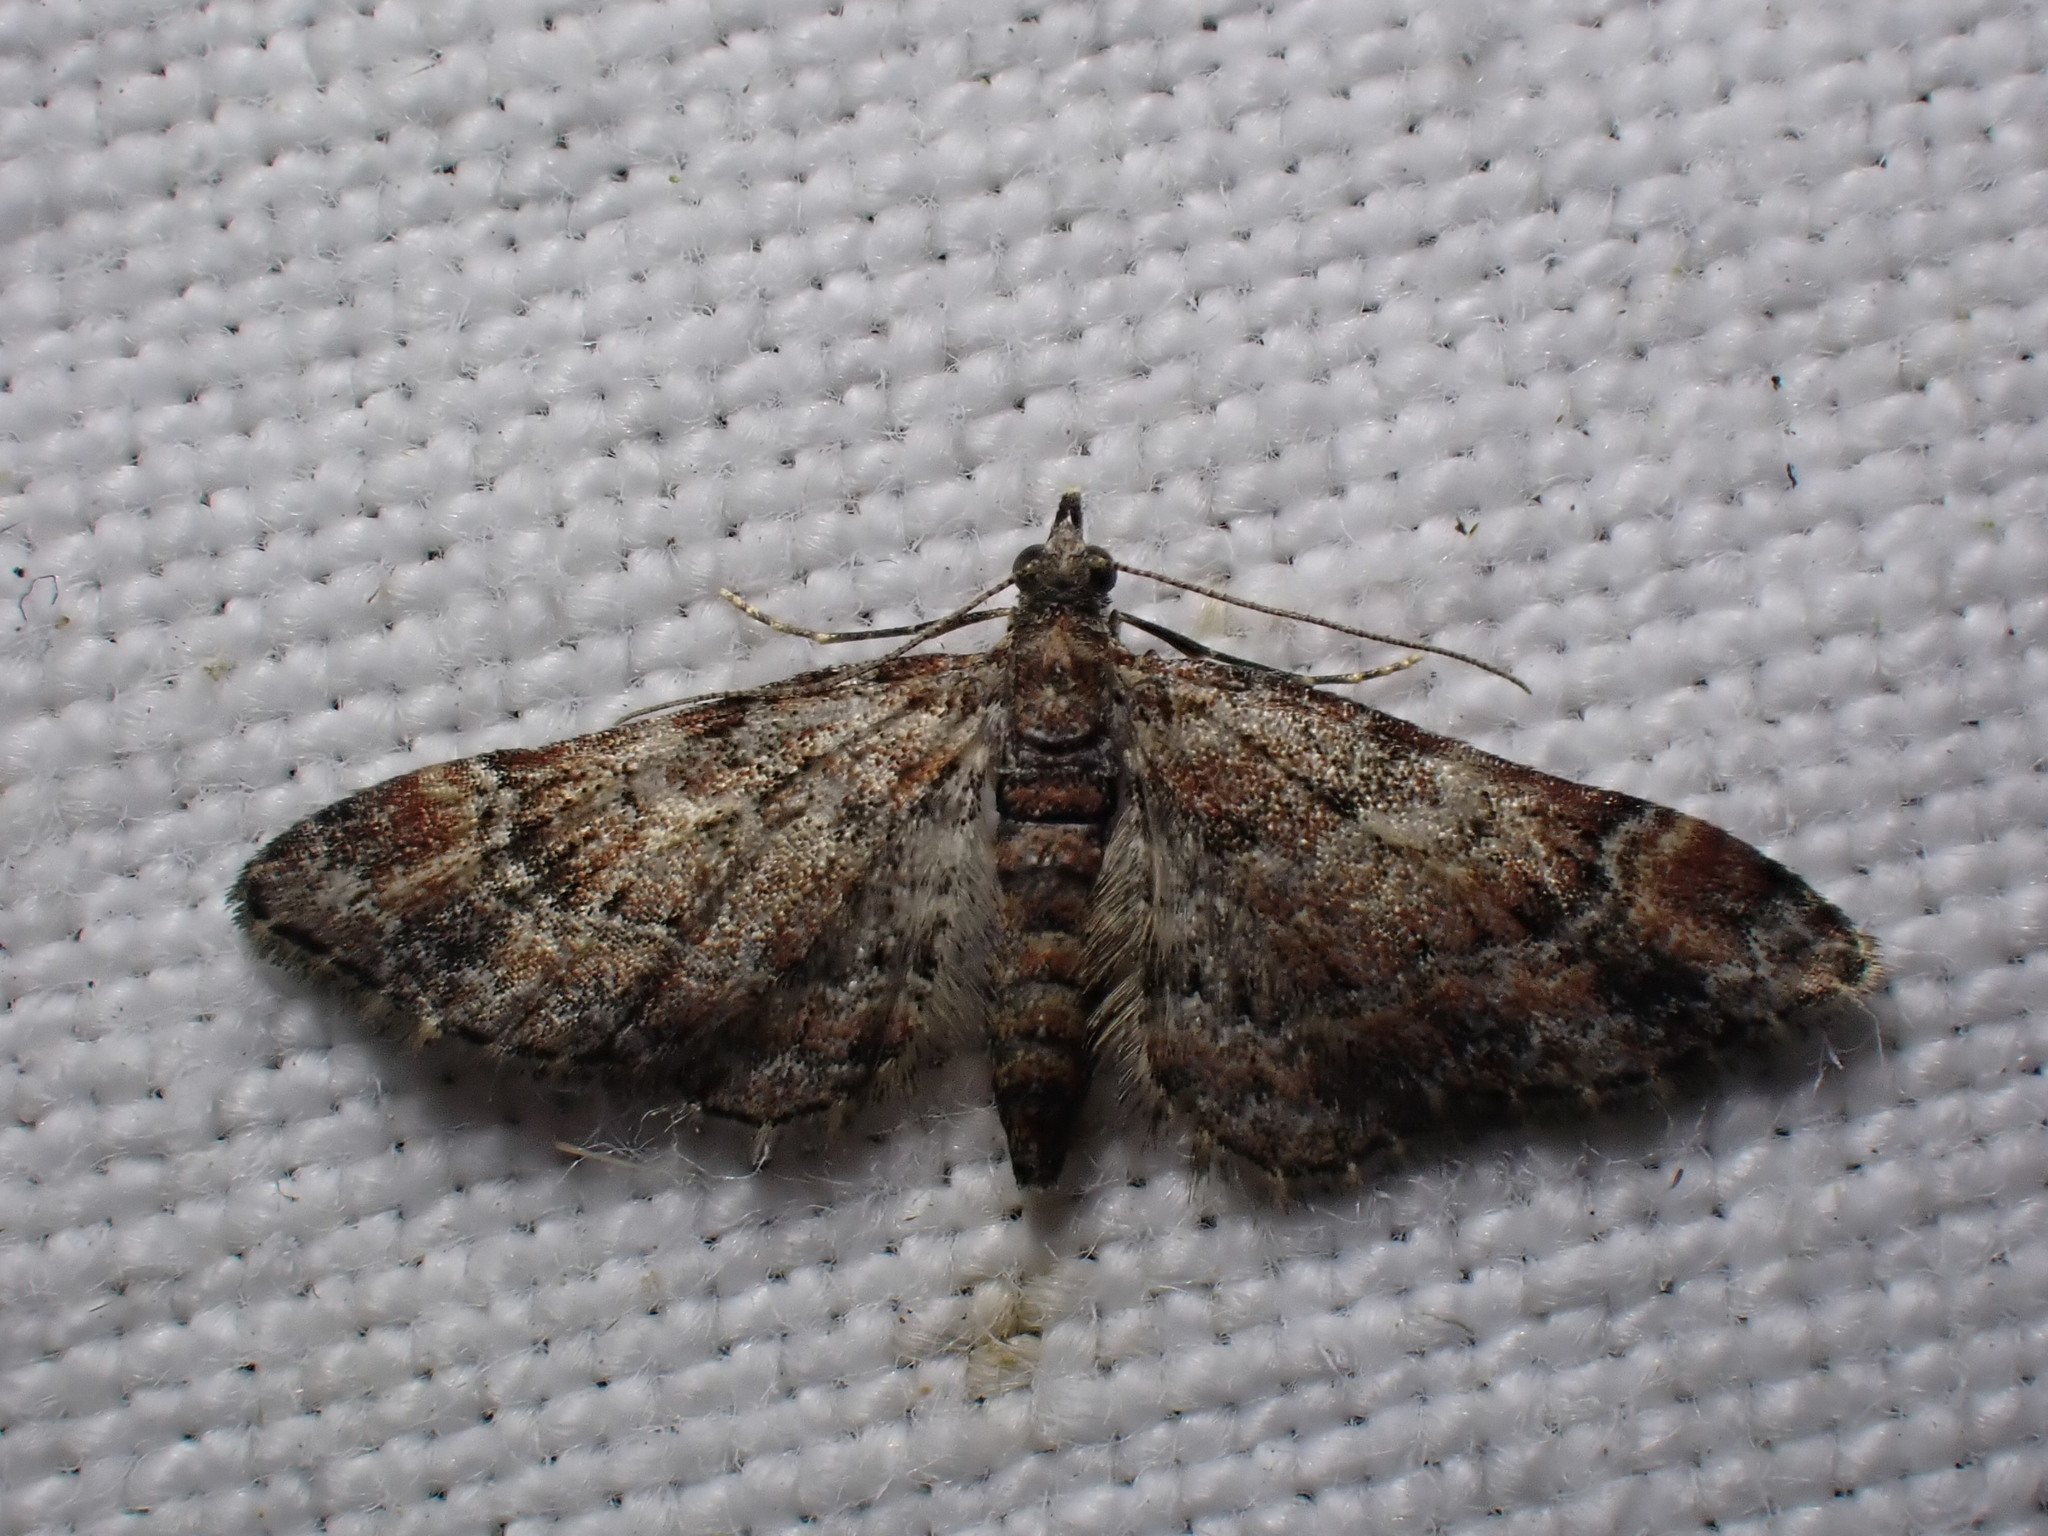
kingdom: Animalia
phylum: Arthropoda
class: Insecta
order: Lepidoptera
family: Geometridae
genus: Gymnoscelis
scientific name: Gymnoscelis rufifasciata
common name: Double-striped pug
